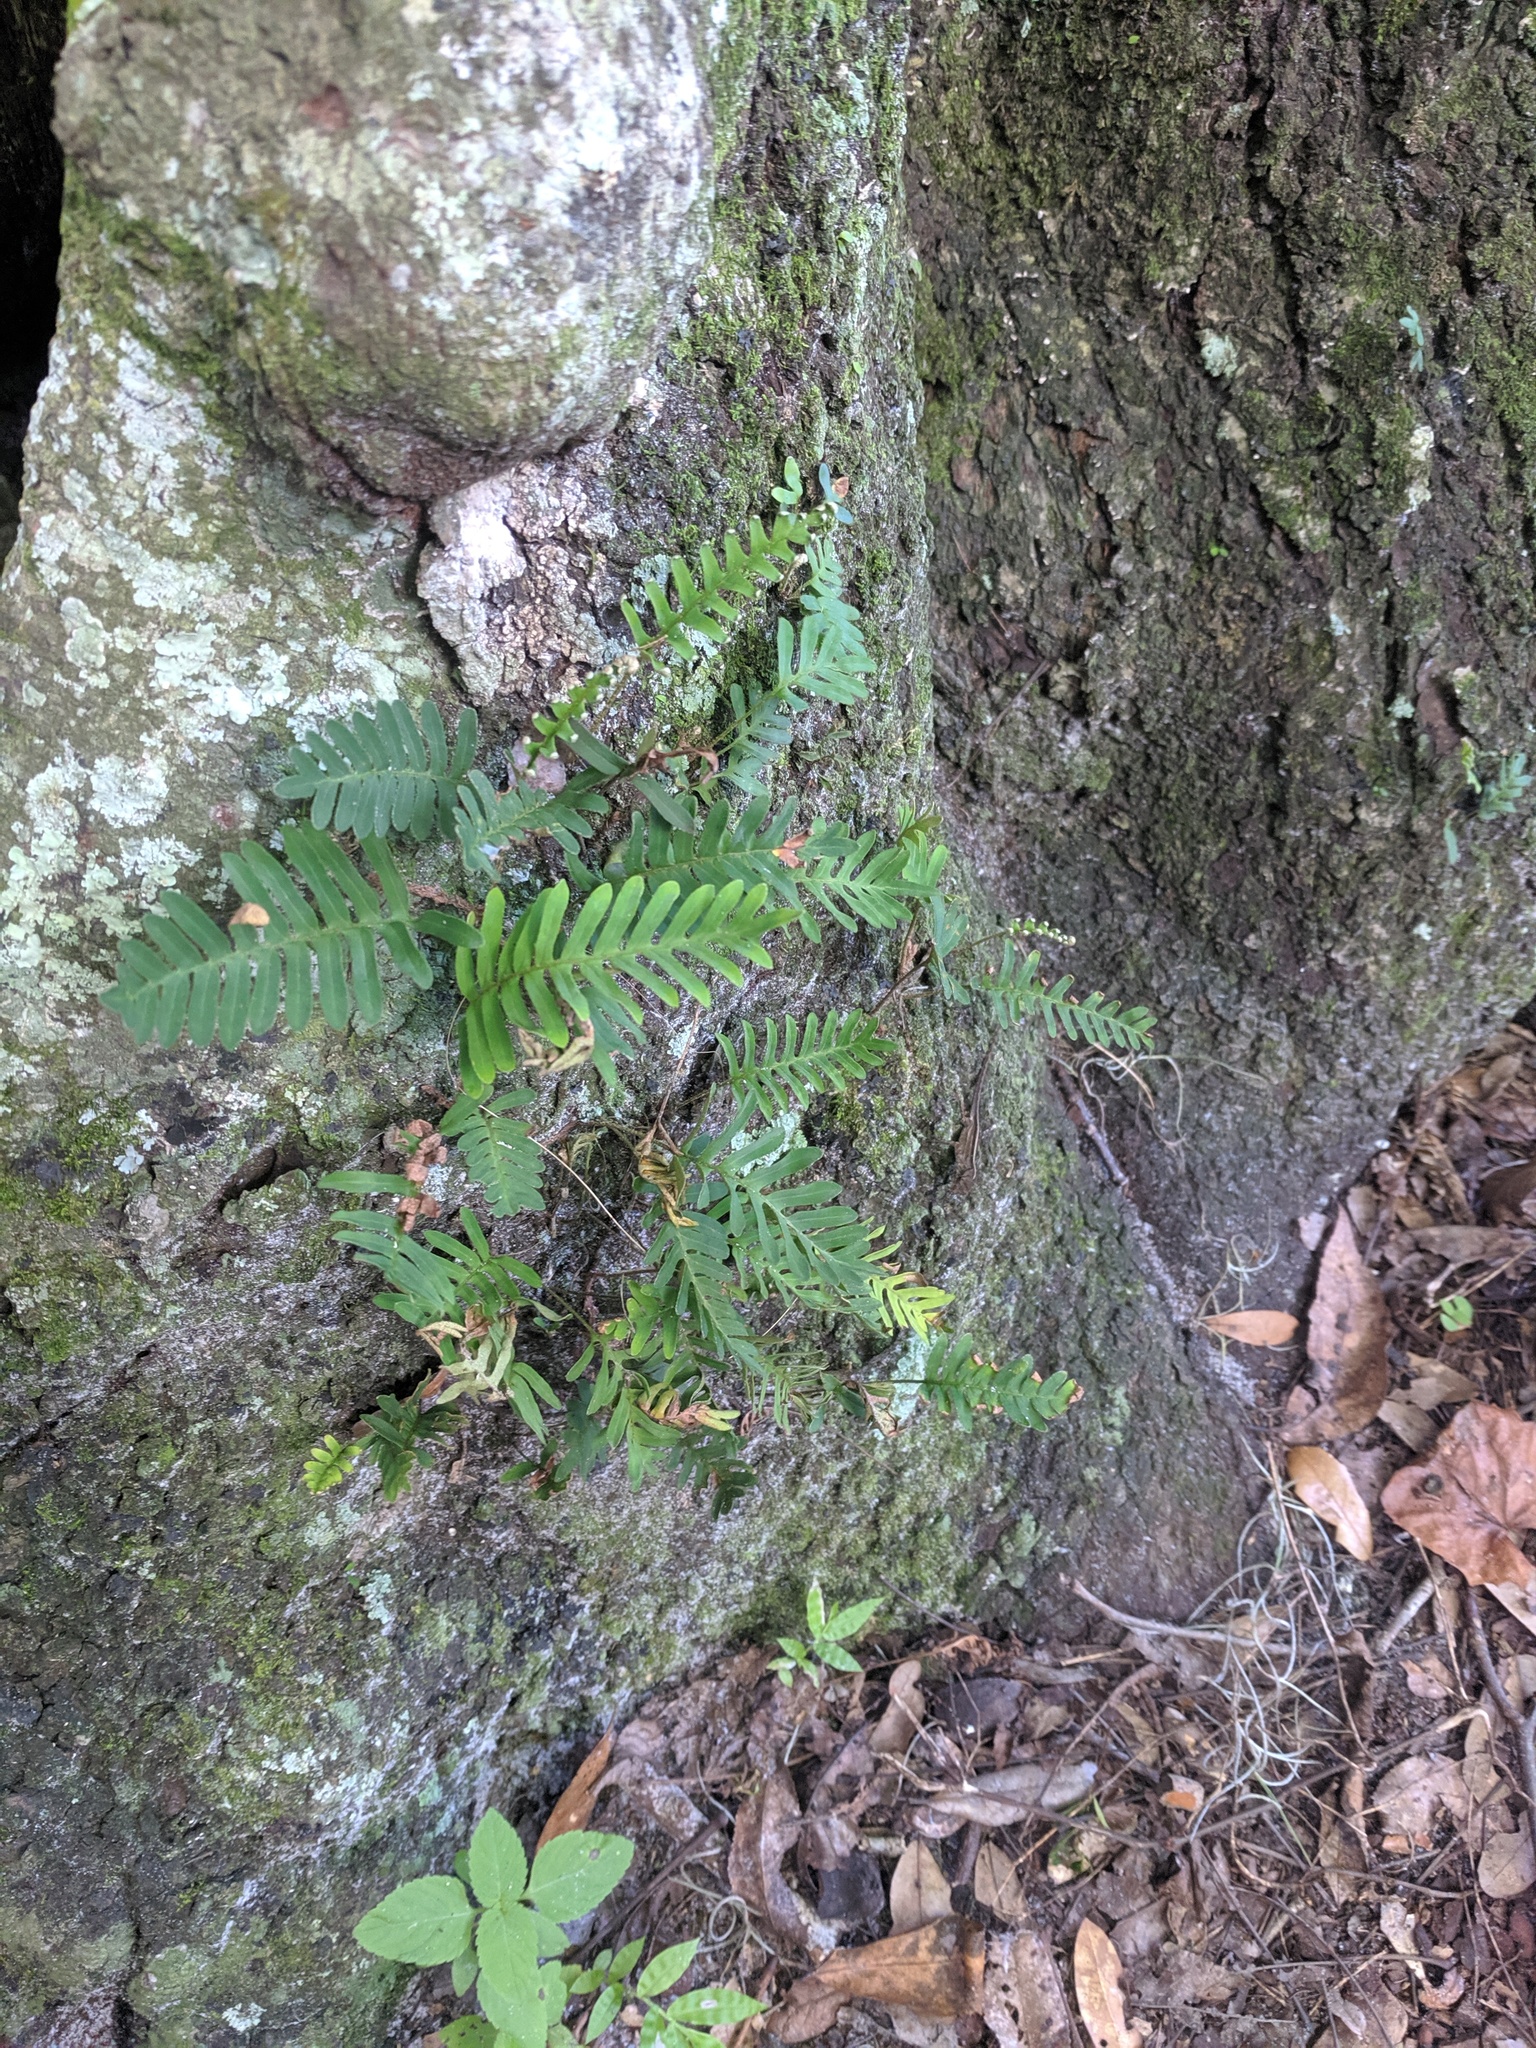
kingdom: Plantae
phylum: Tracheophyta
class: Polypodiopsida
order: Polypodiales
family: Polypodiaceae
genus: Pleopeltis
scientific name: Pleopeltis michauxiana
